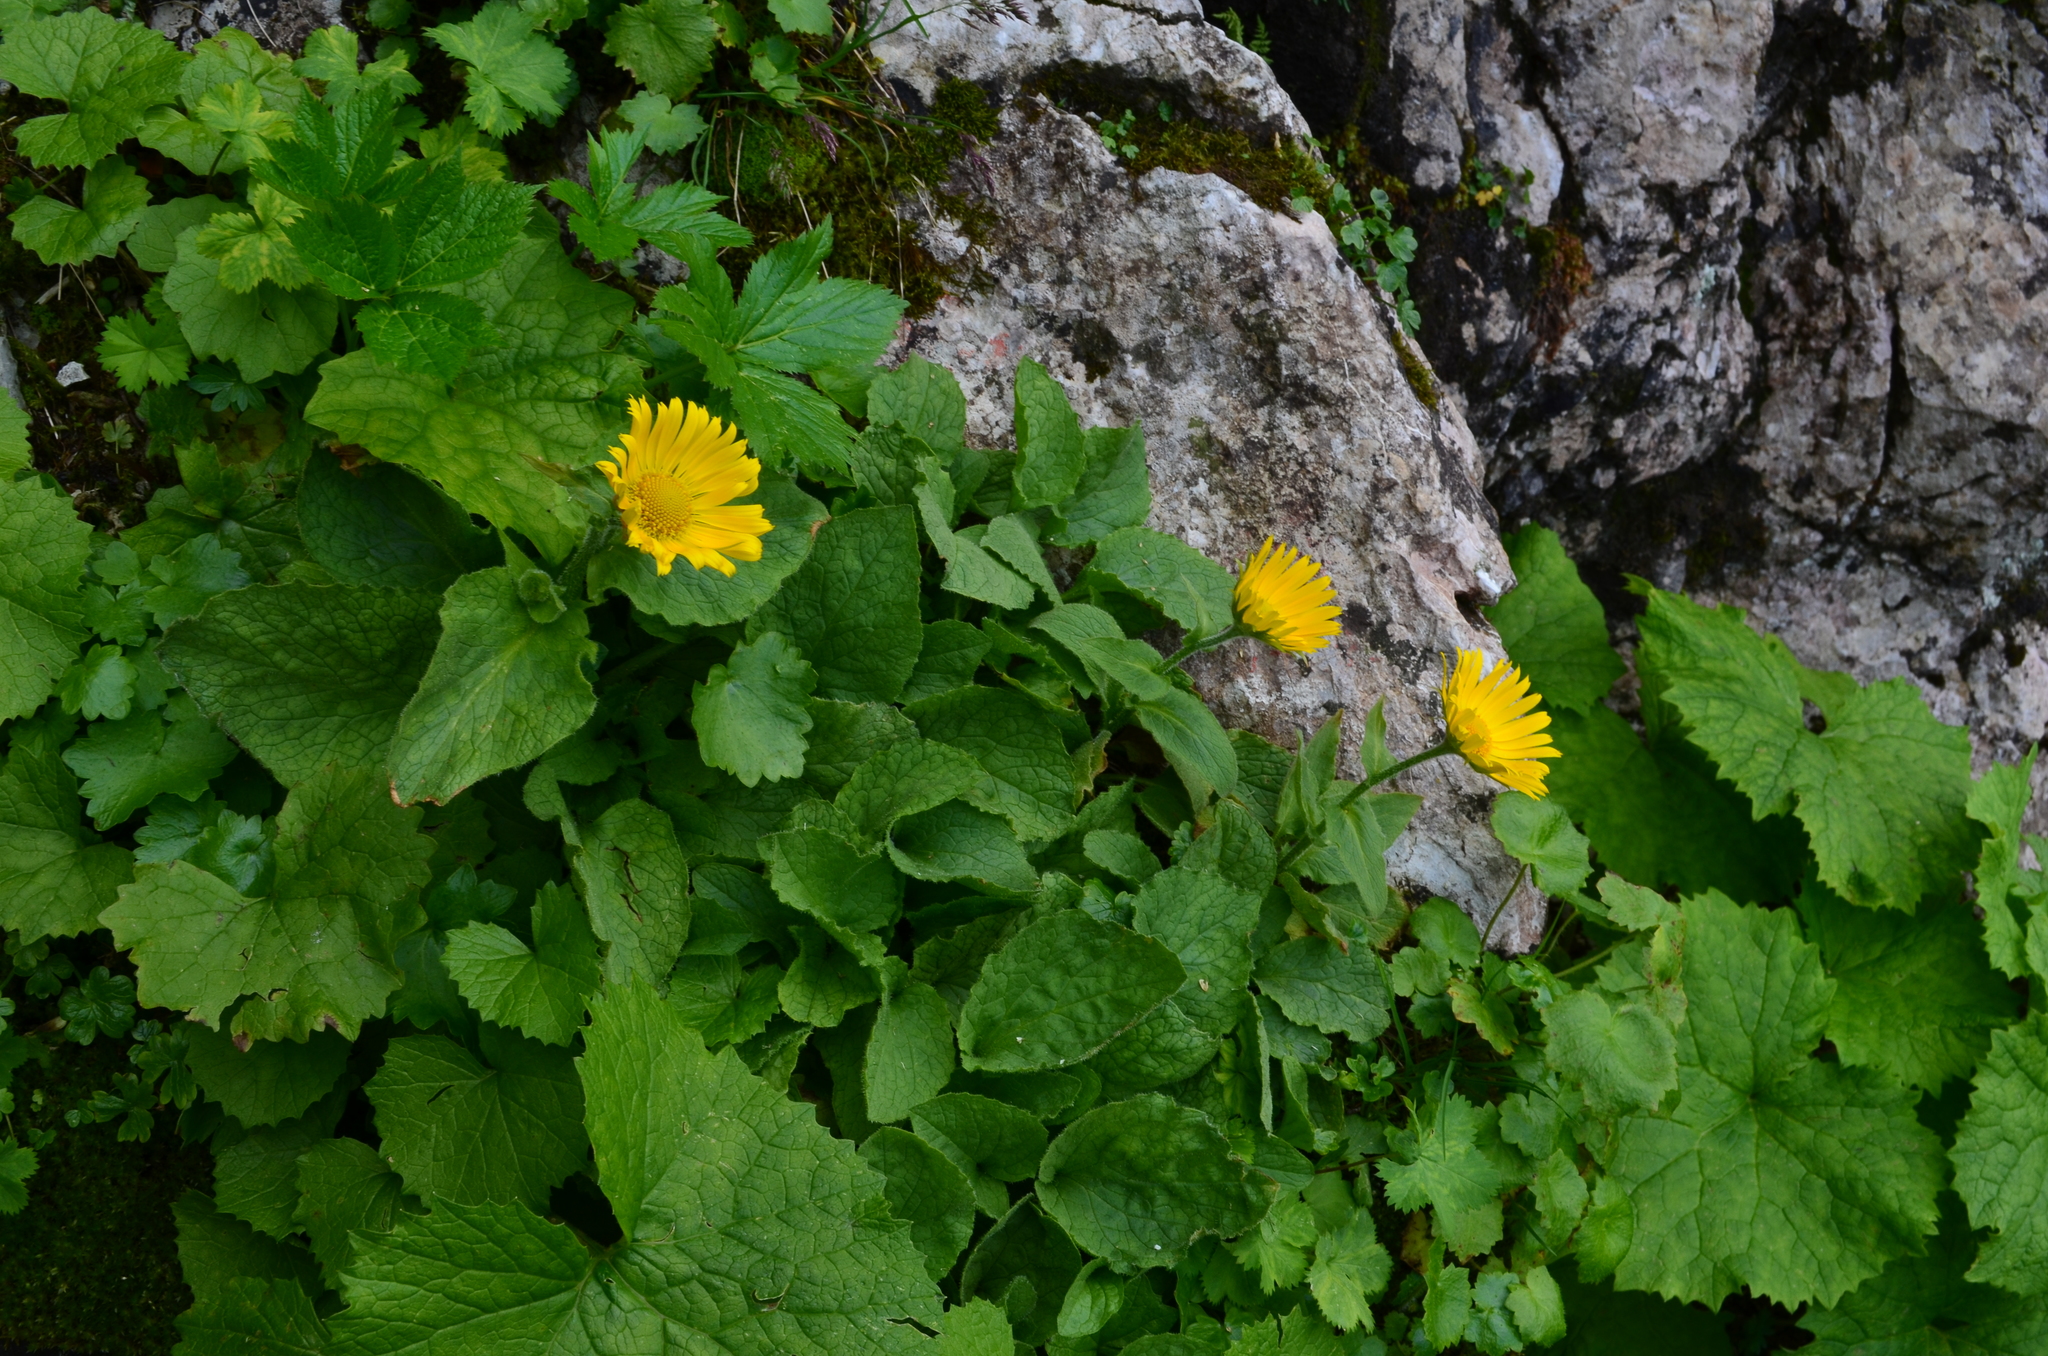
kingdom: Plantae
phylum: Tracheophyta
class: Magnoliopsida
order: Asterales
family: Asteraceae
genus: Doronicum
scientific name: Doronicum grandiflorum
